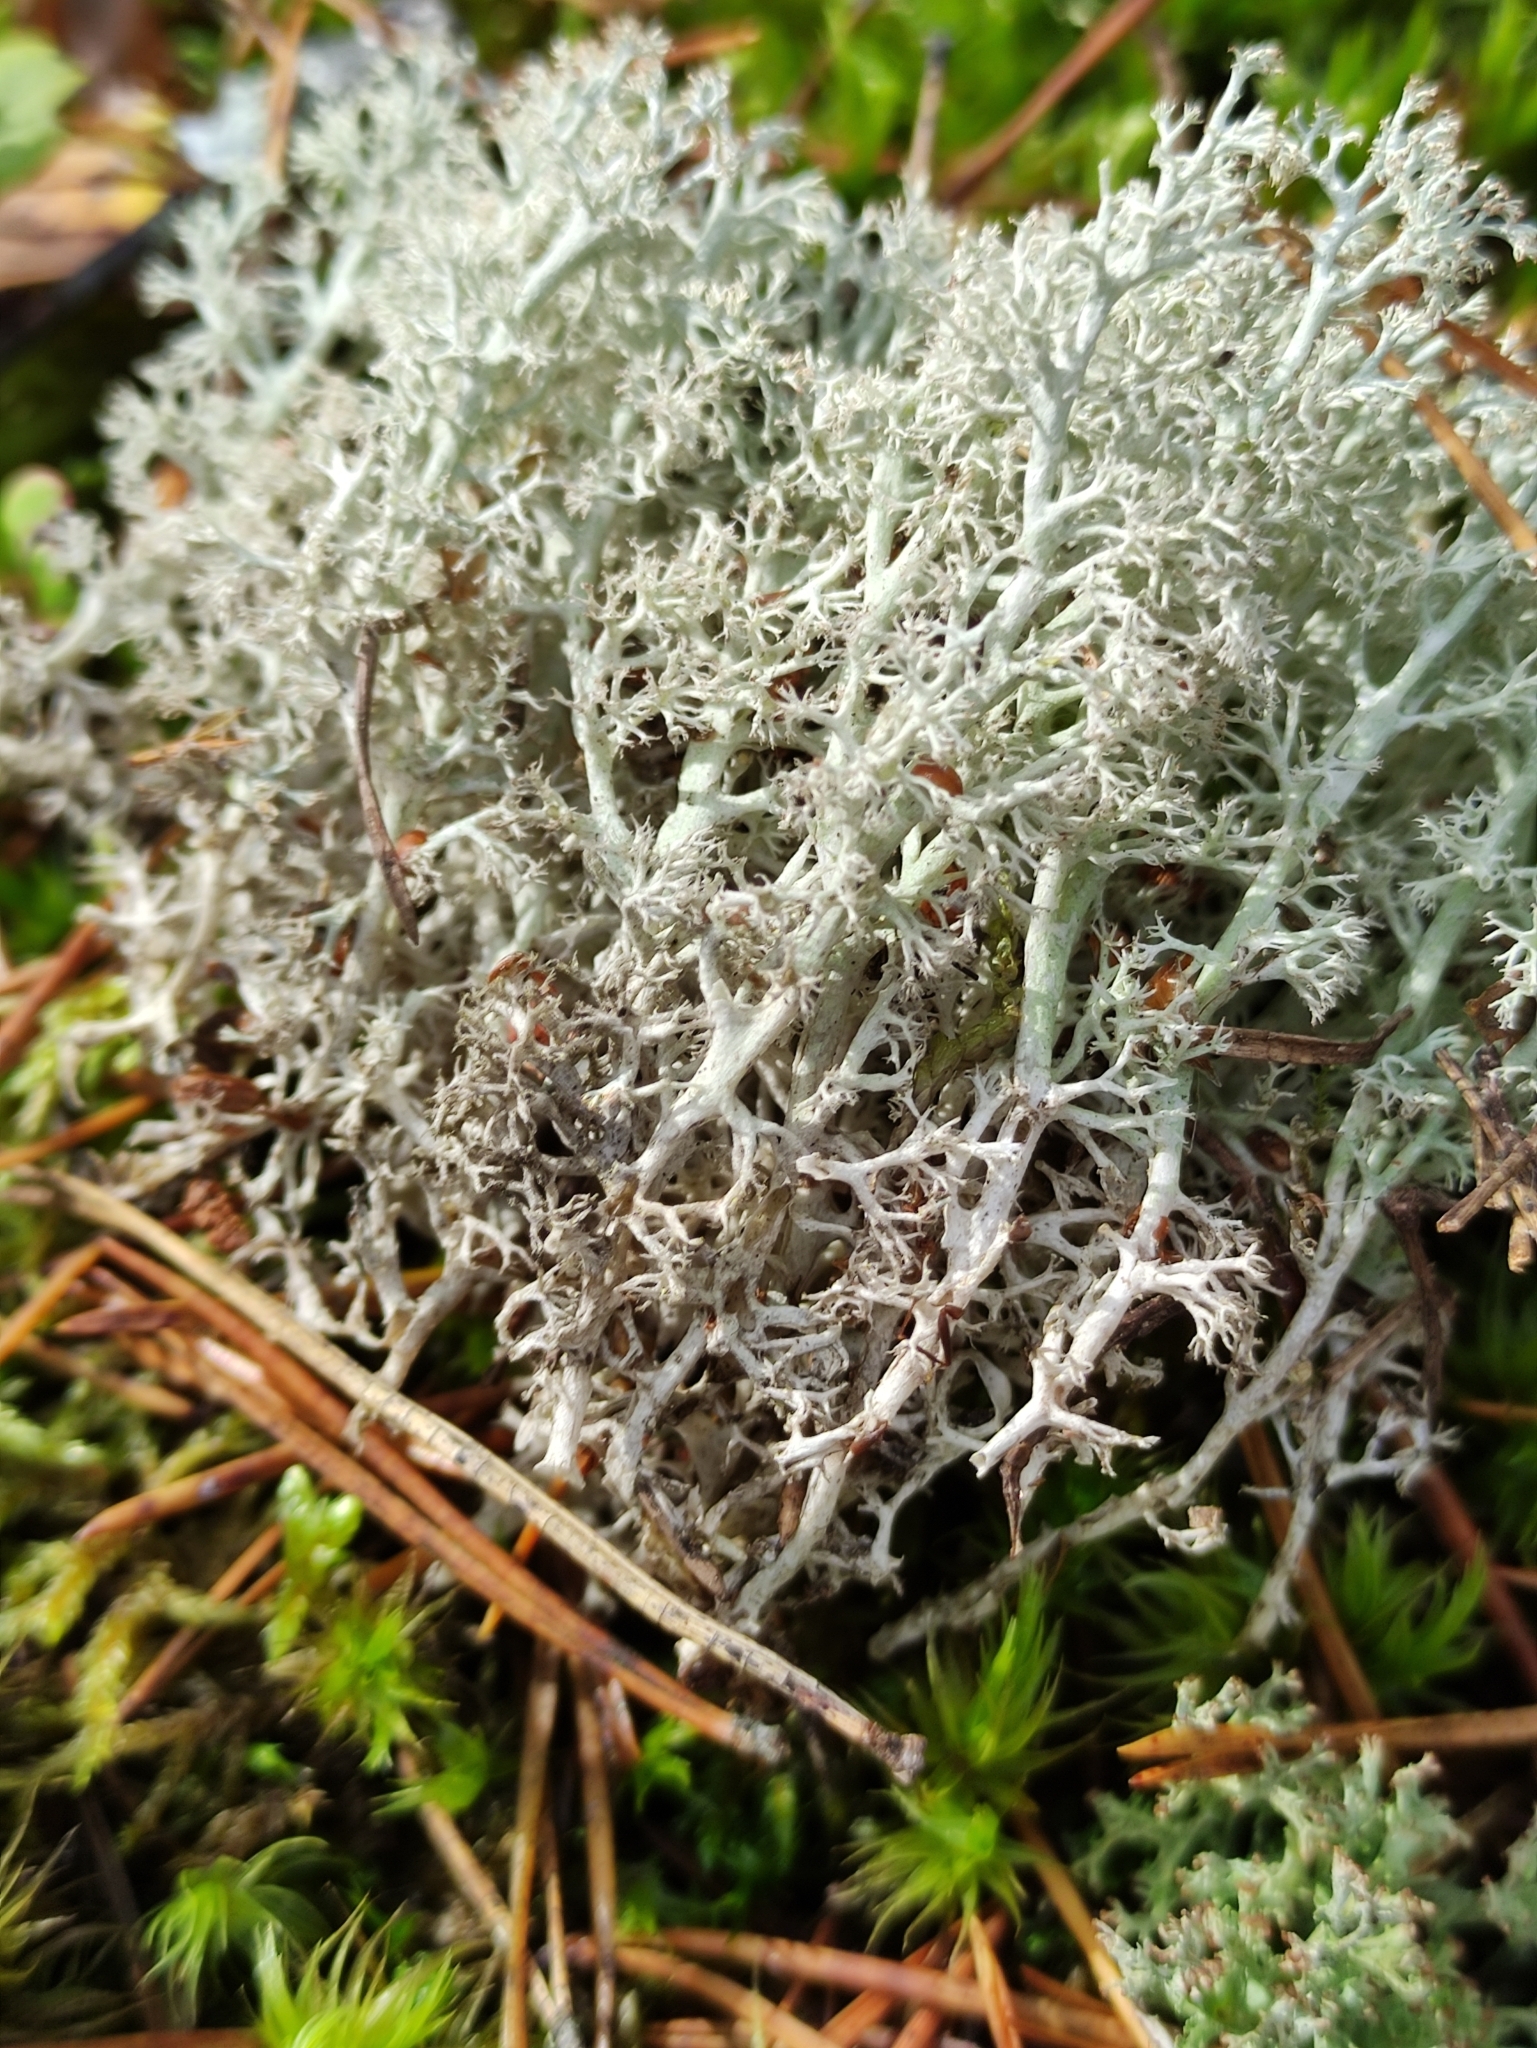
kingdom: Fungi
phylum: Ascomycota
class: Lecanoromycetes
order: Lecanorales
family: Cladoniaceae
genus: Cladonia
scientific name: Cladonia rangiferina
